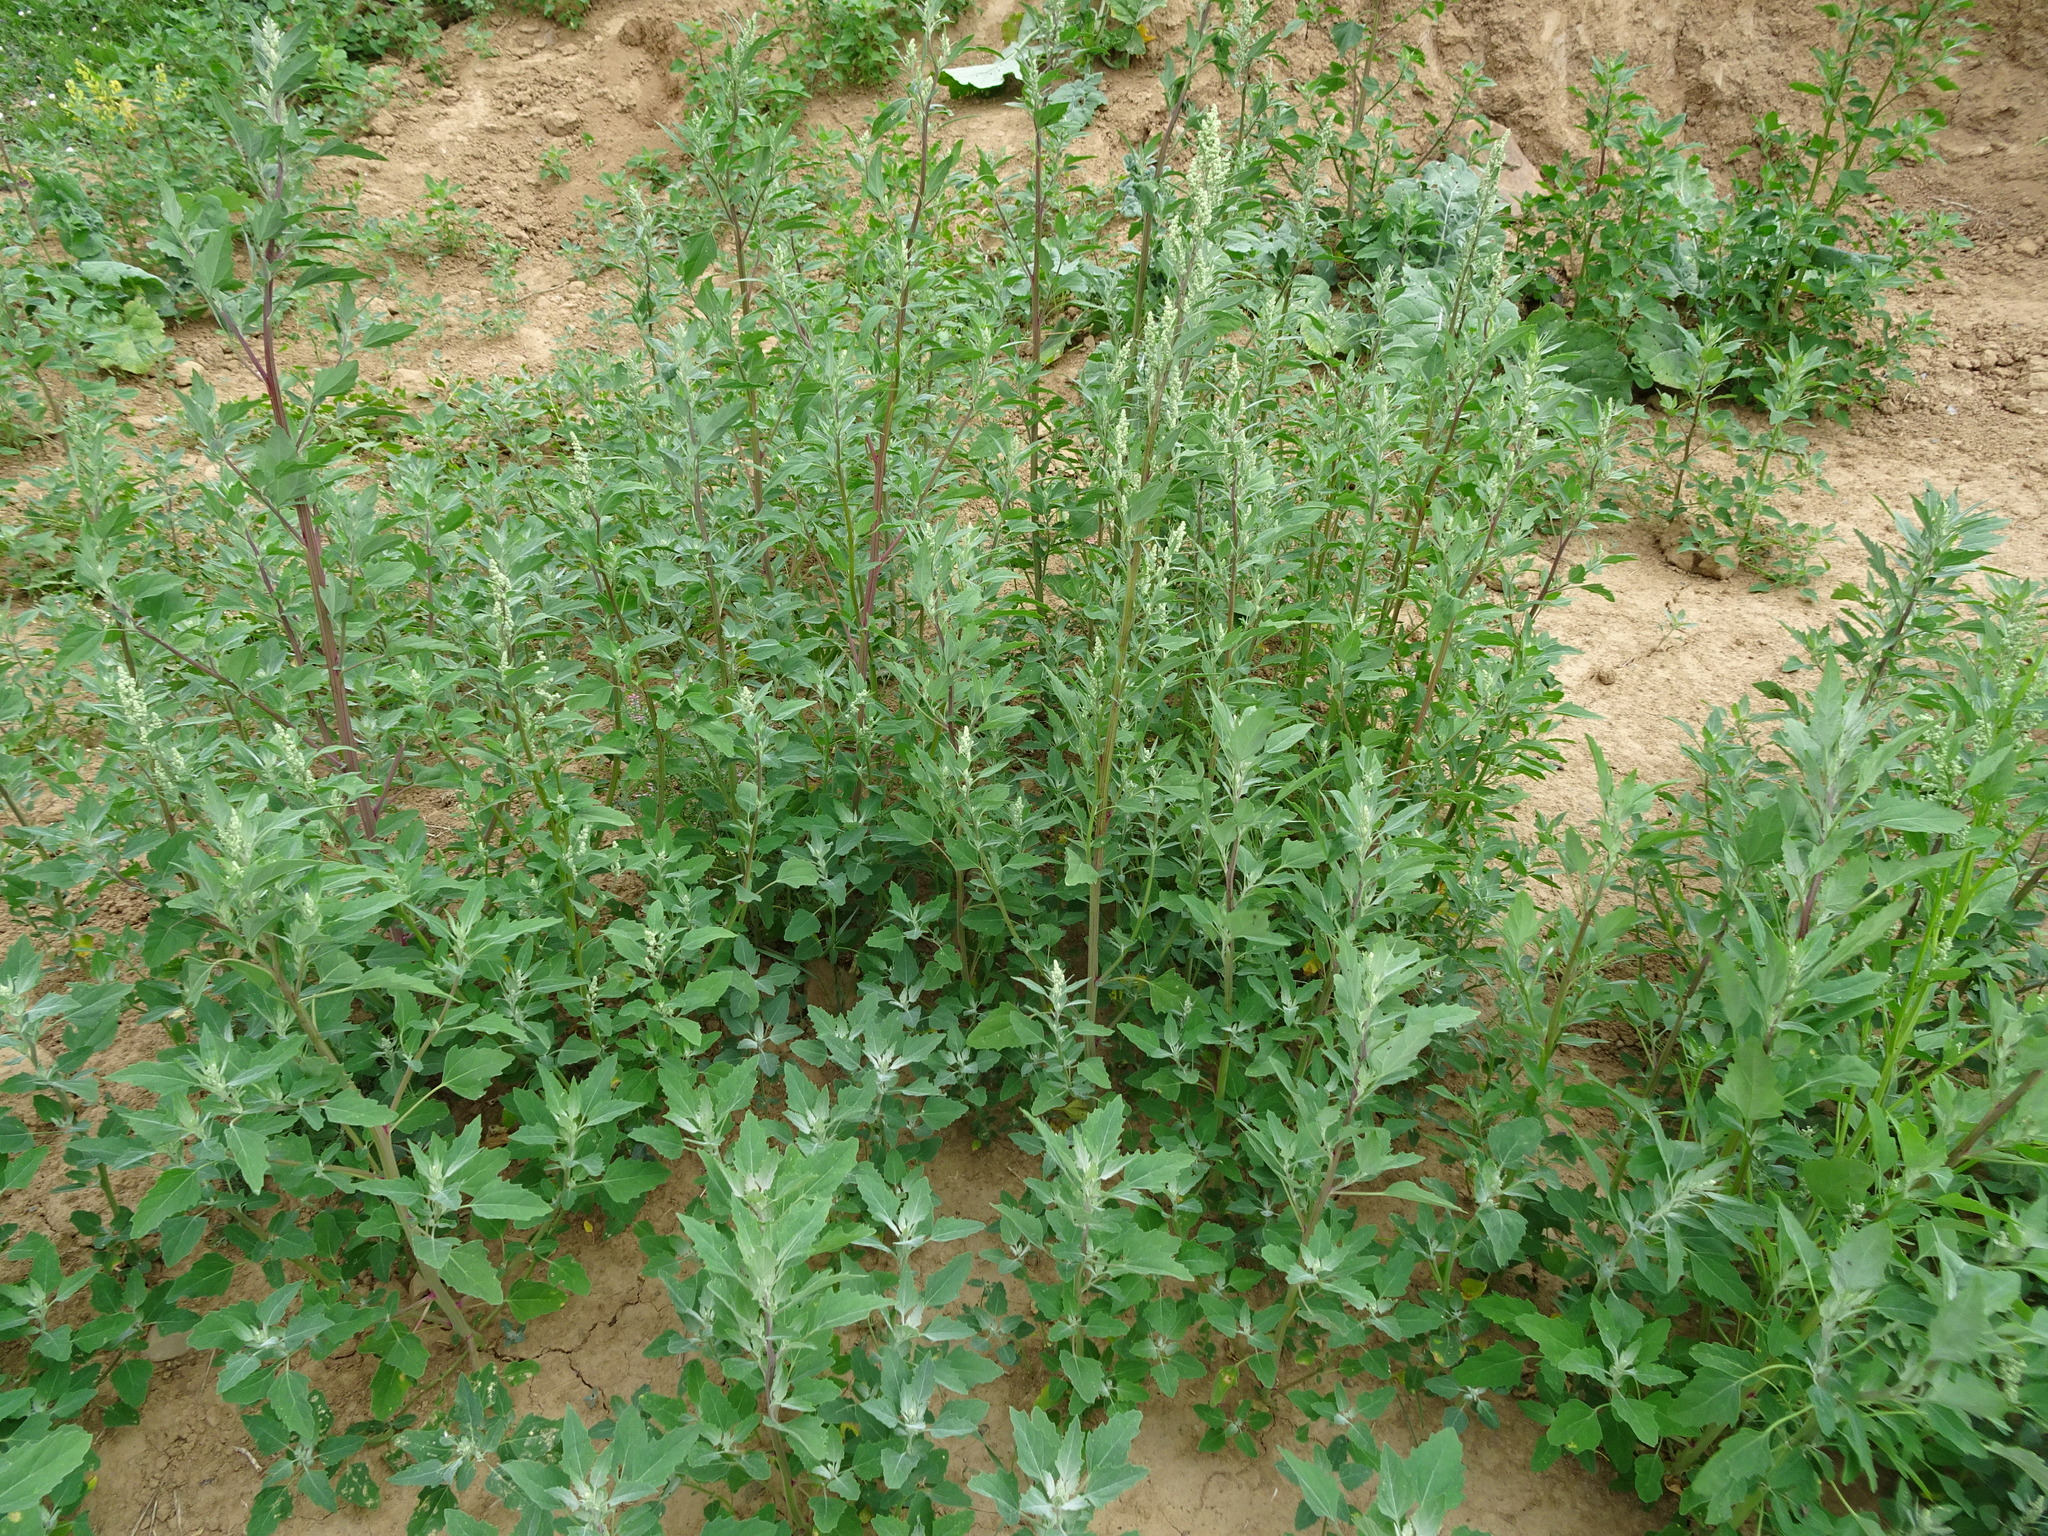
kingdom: Plantae
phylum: Tracheophyta
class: Magnoliopsida
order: Caryophyllales
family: Amaranthaceae
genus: Chenopodium
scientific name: Chenopodium album
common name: Fat-hen
